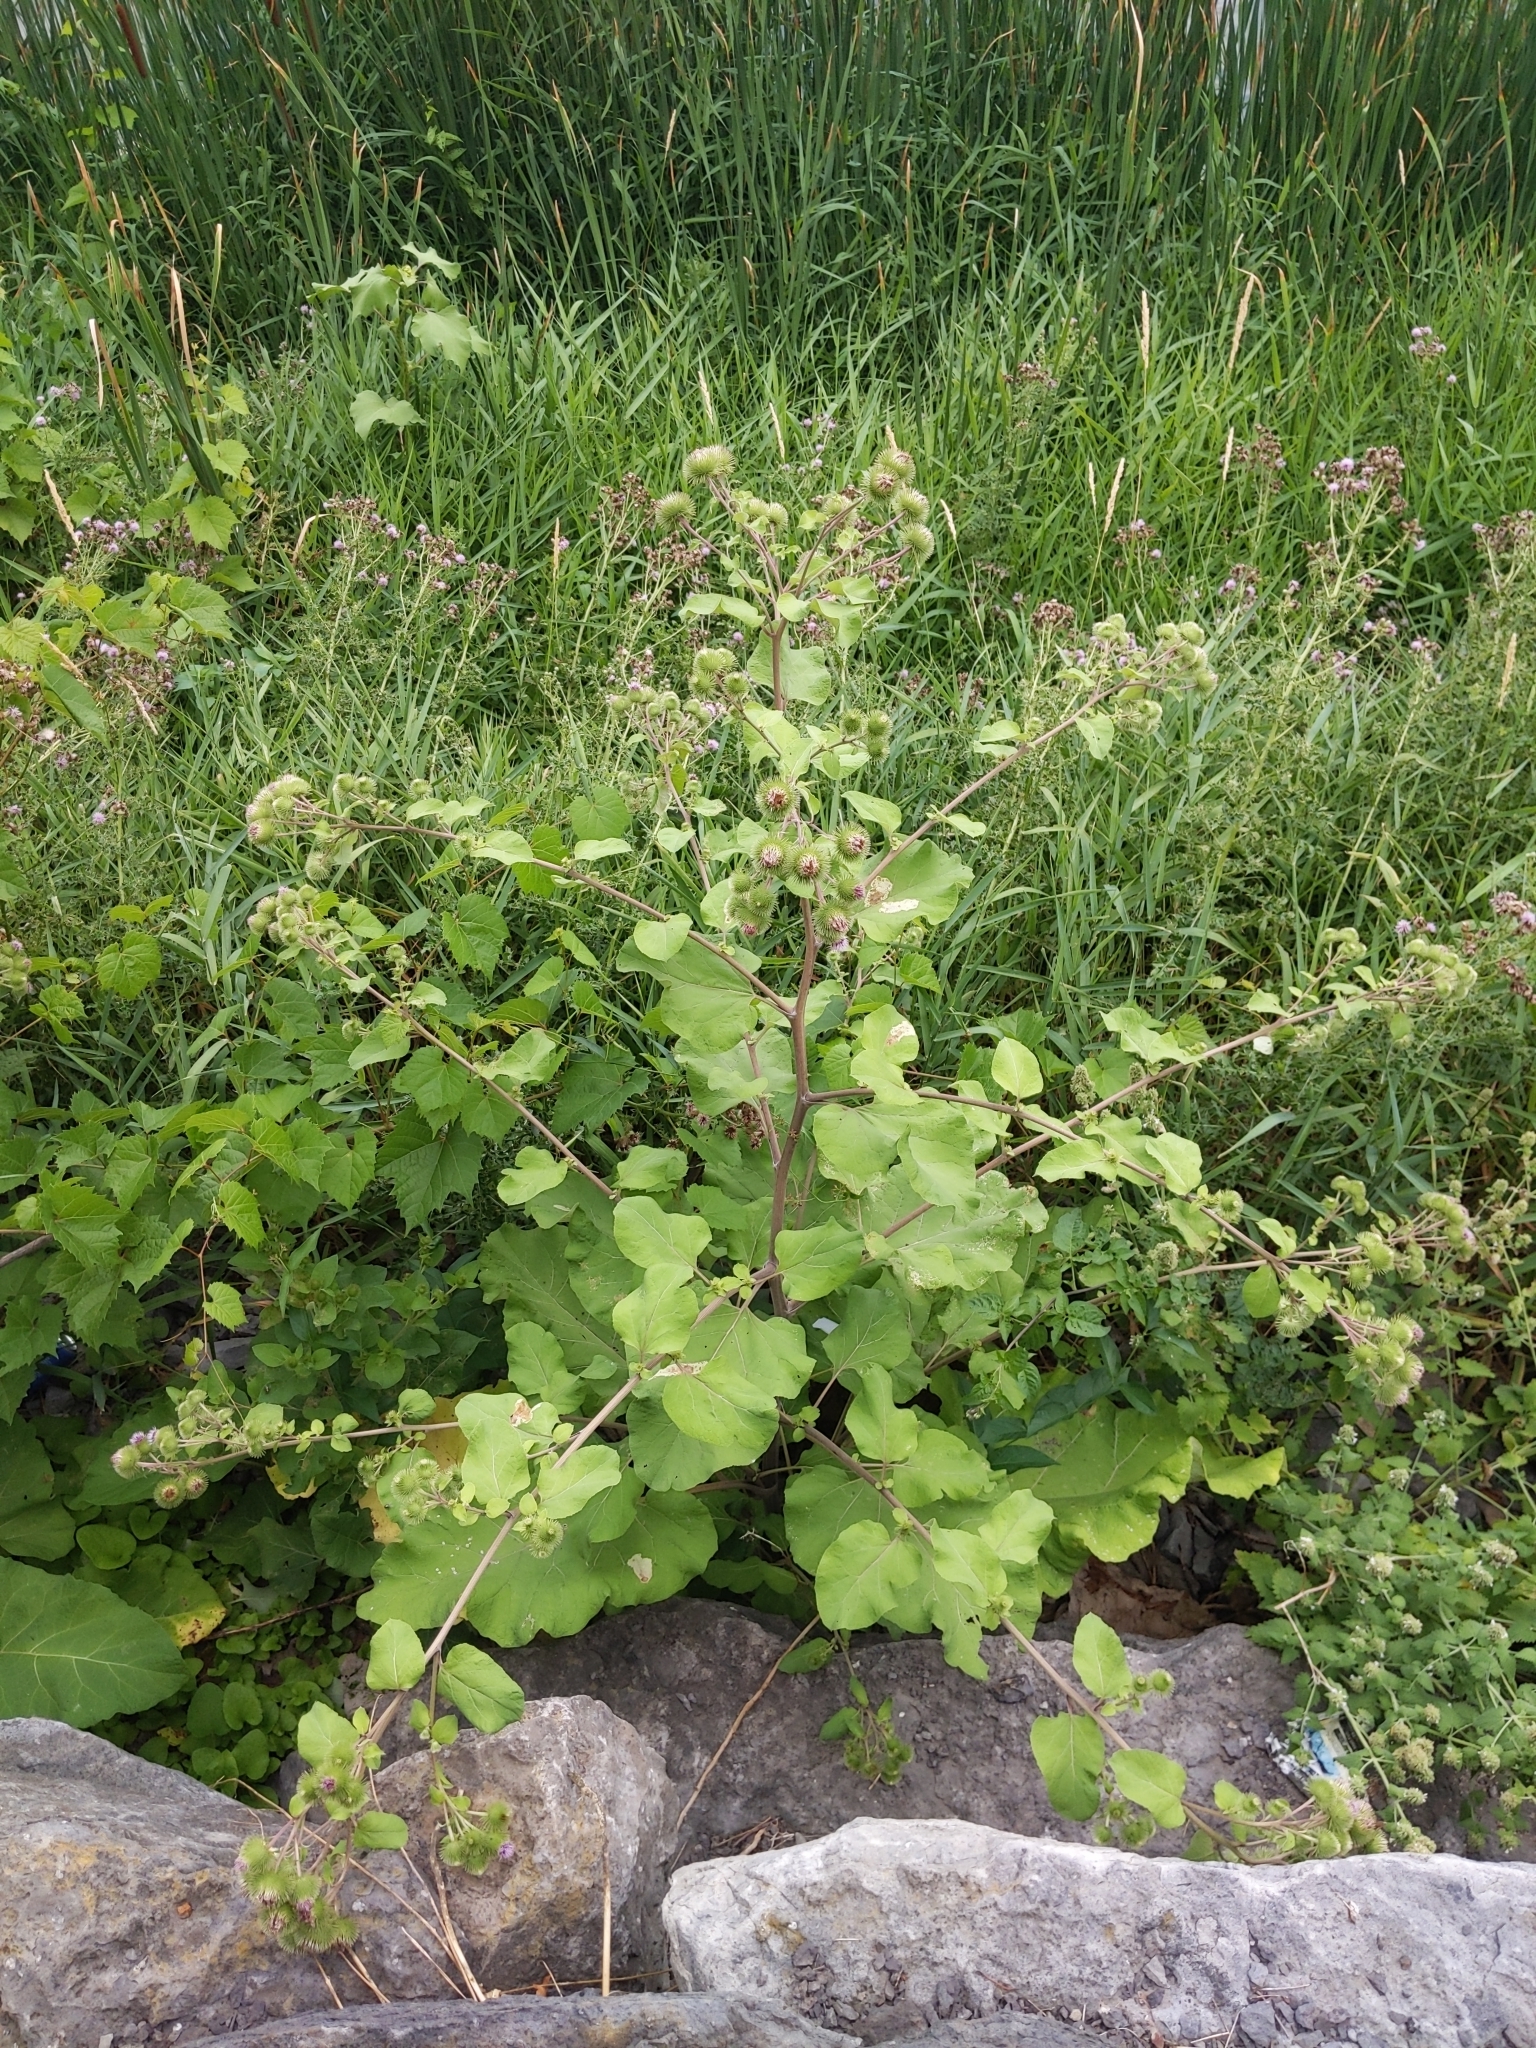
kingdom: Plantae
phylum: Tracheophyta
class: Magnoliopsida
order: Asterales
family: Asteraceae
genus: Arctium
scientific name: Arctium lappa
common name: Greater burdock
